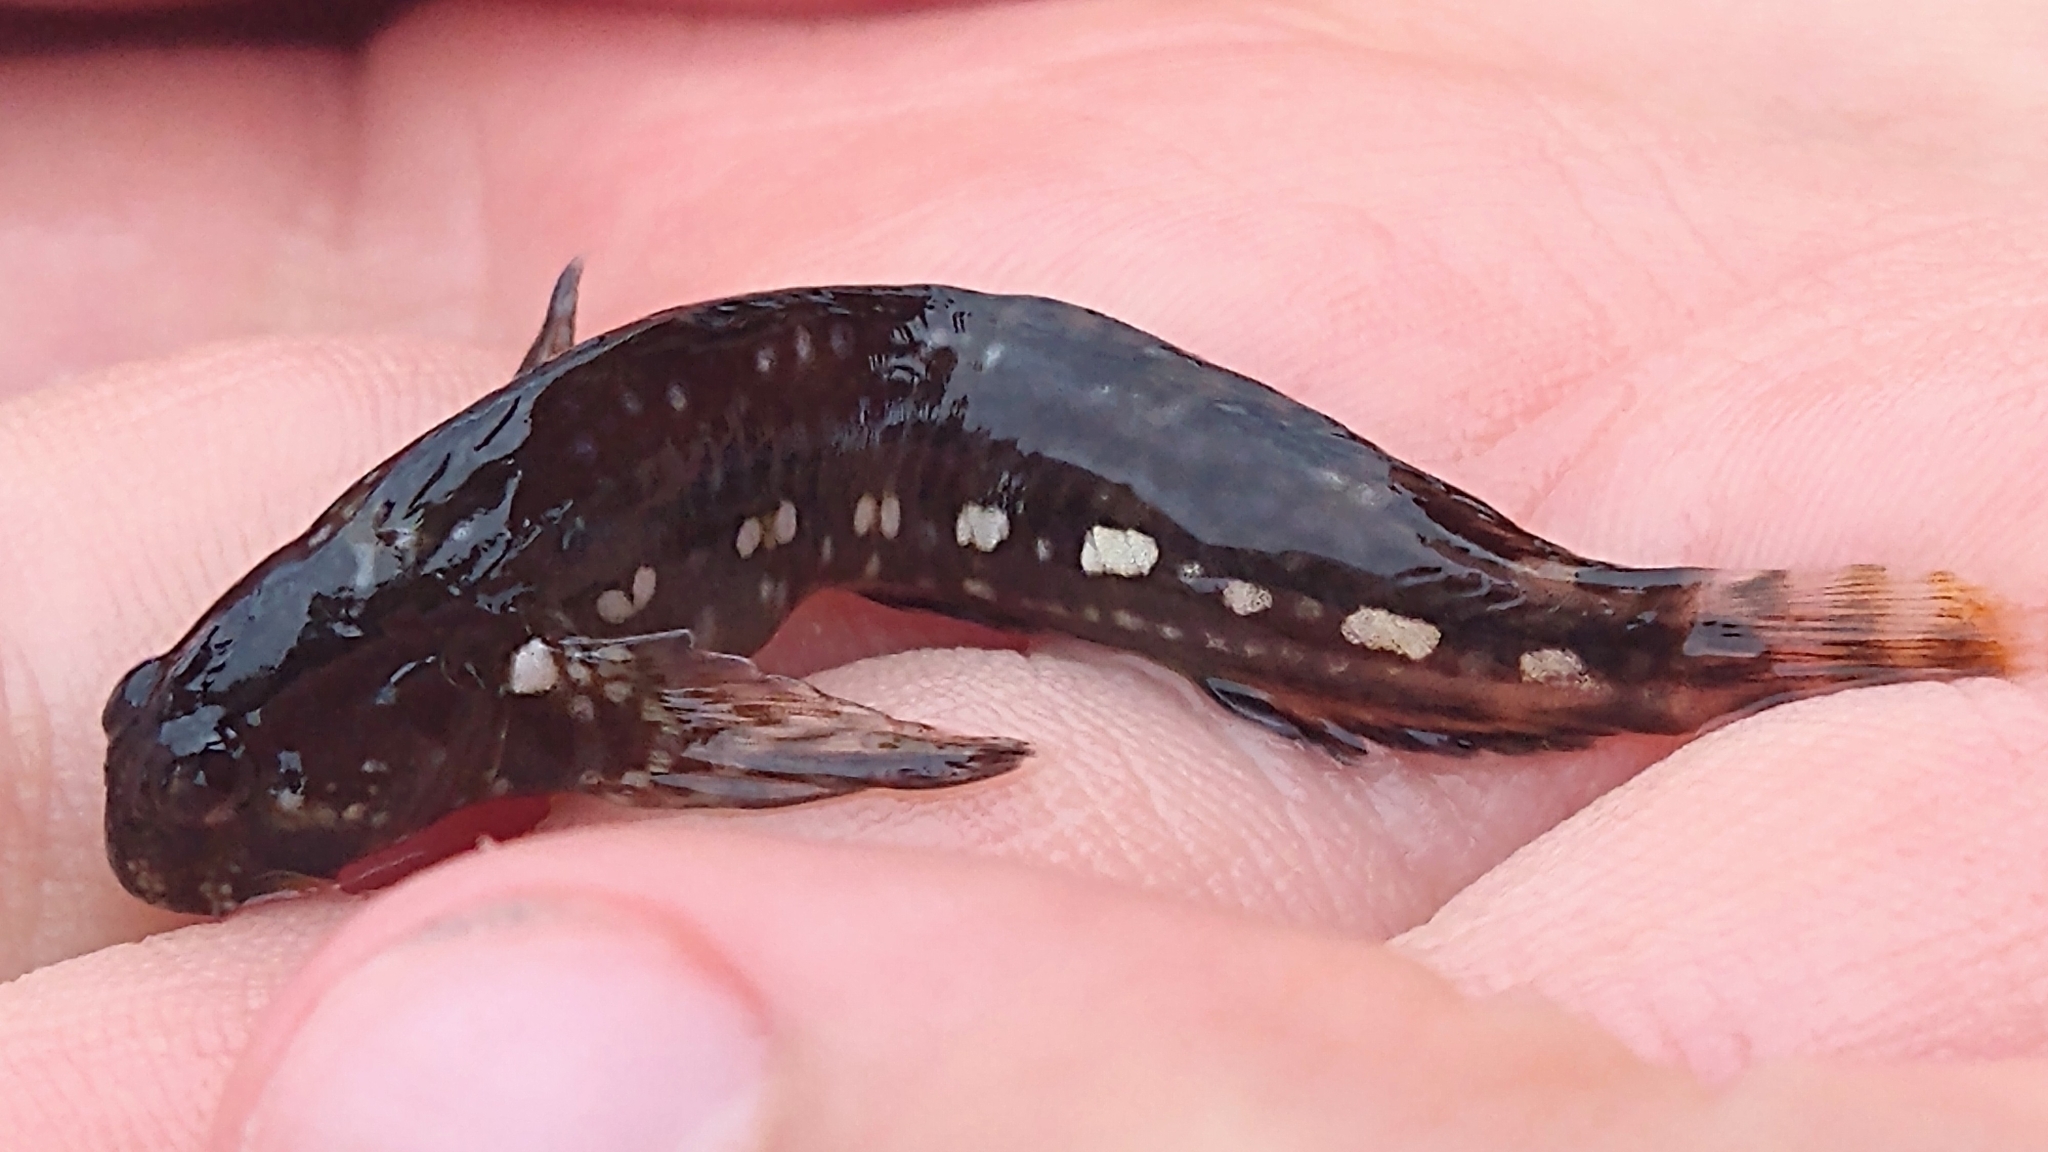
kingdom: Animalia
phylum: Chordata
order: Perciformes
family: Blenniidae
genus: Coryphoblennius
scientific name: Coryphoblennius galerita
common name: Montagu's blenny
